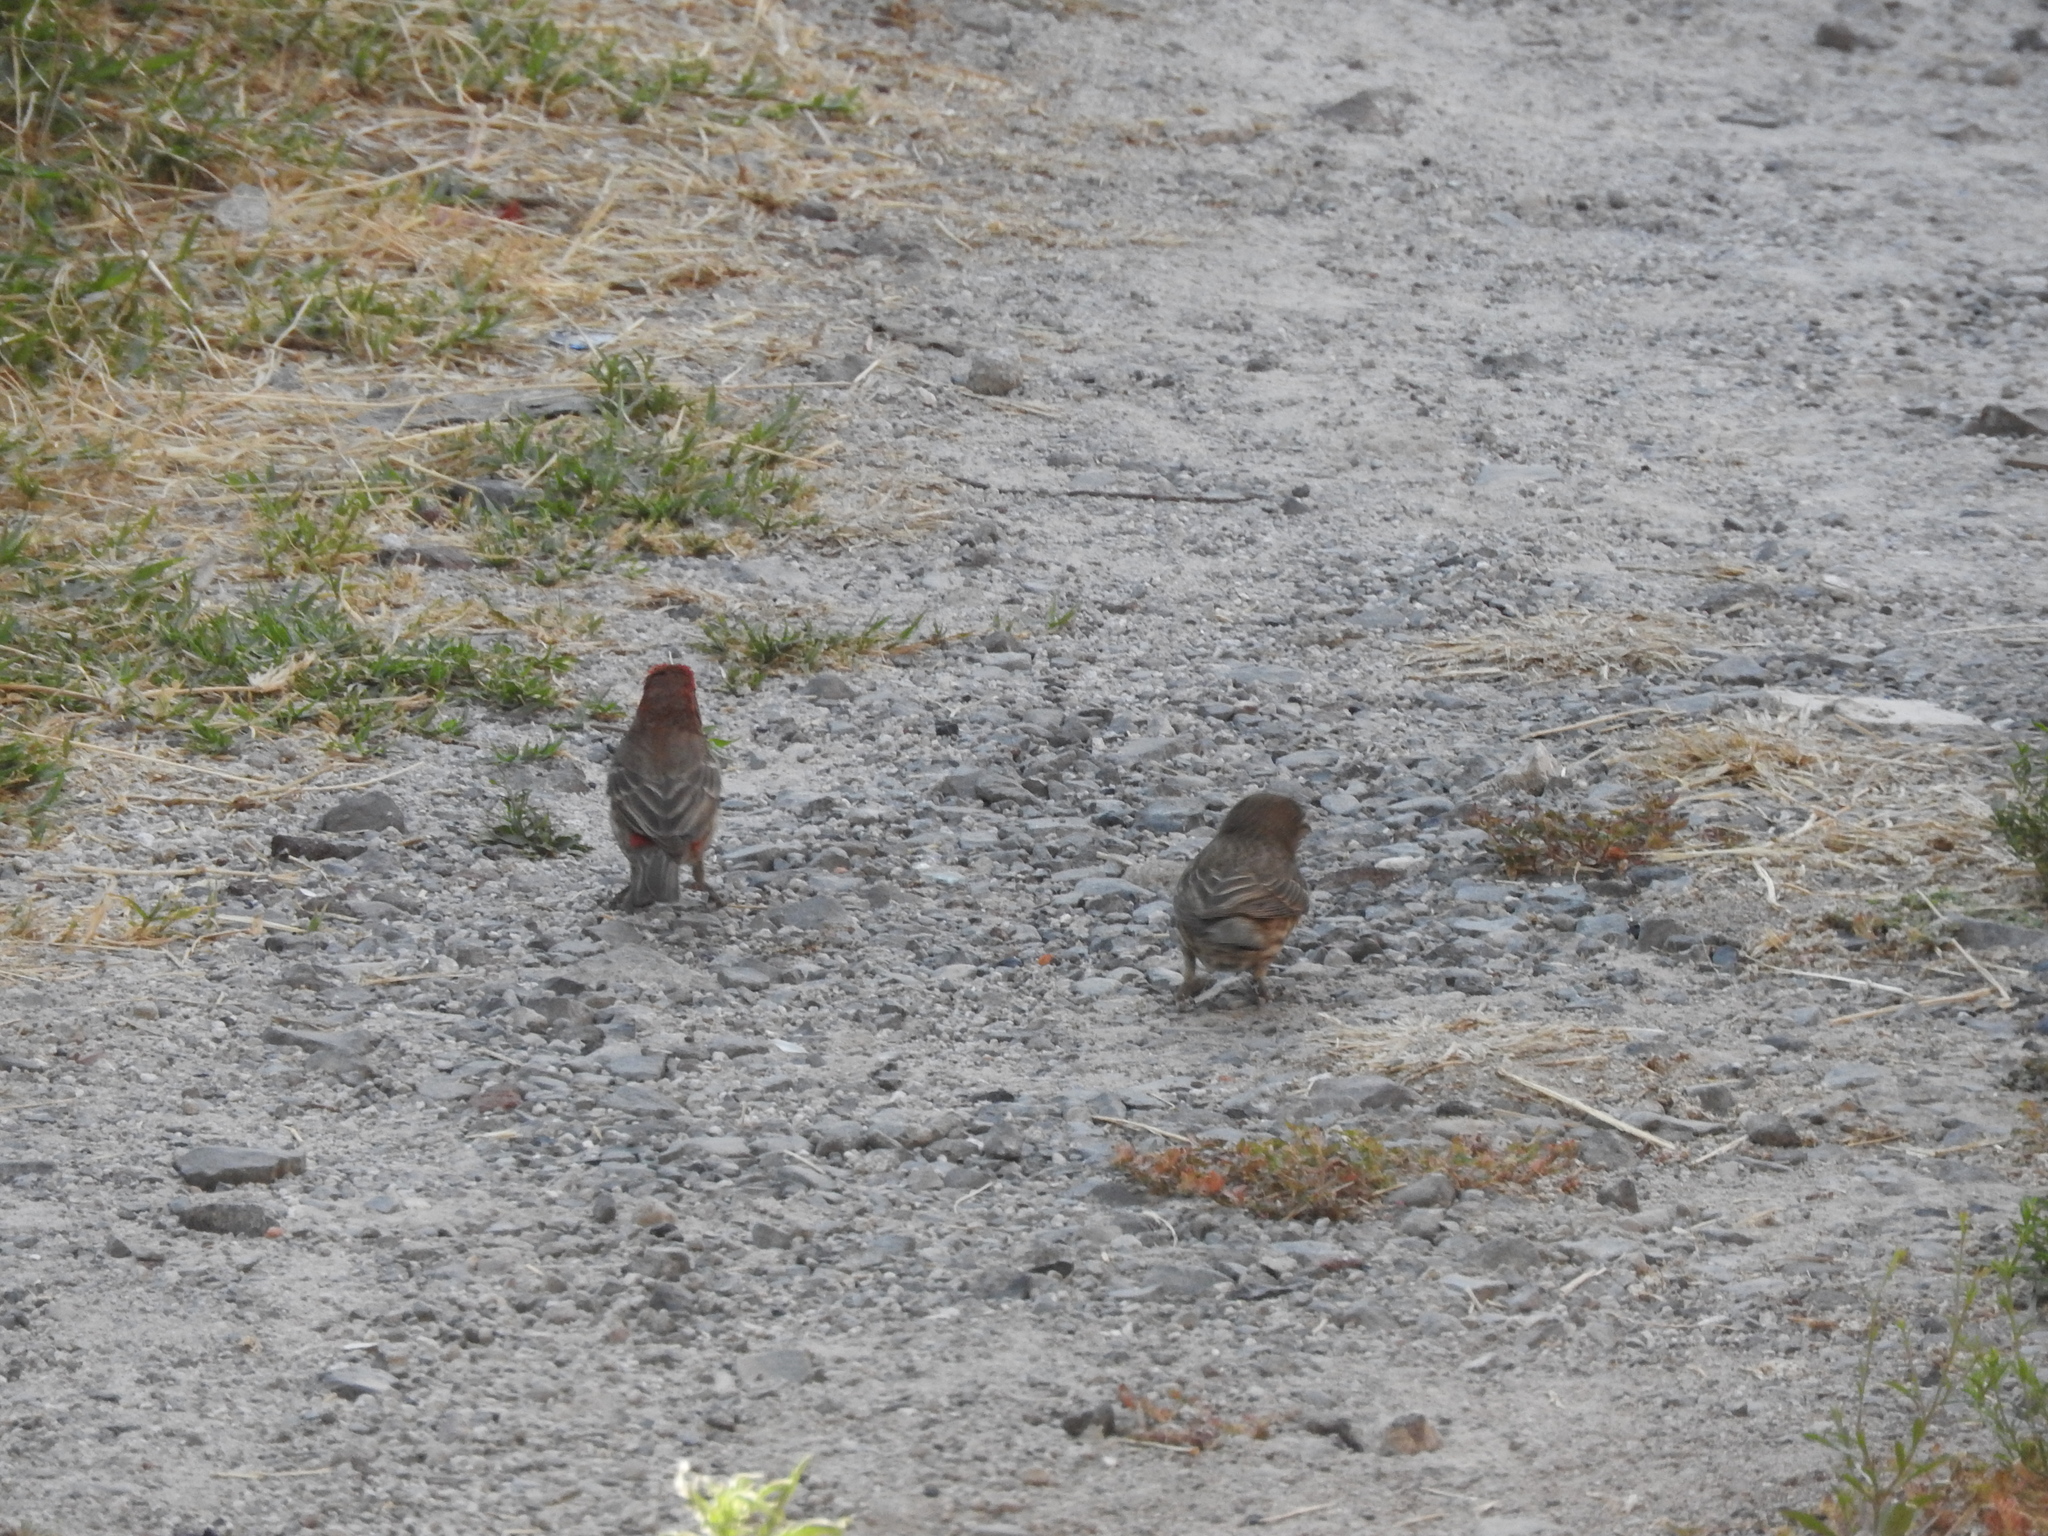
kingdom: Animalia
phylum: Chordata
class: Aves
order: Passeriformes
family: Fringillidae
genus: Haemorhous
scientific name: Haemorhous mexicanus
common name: House finch
